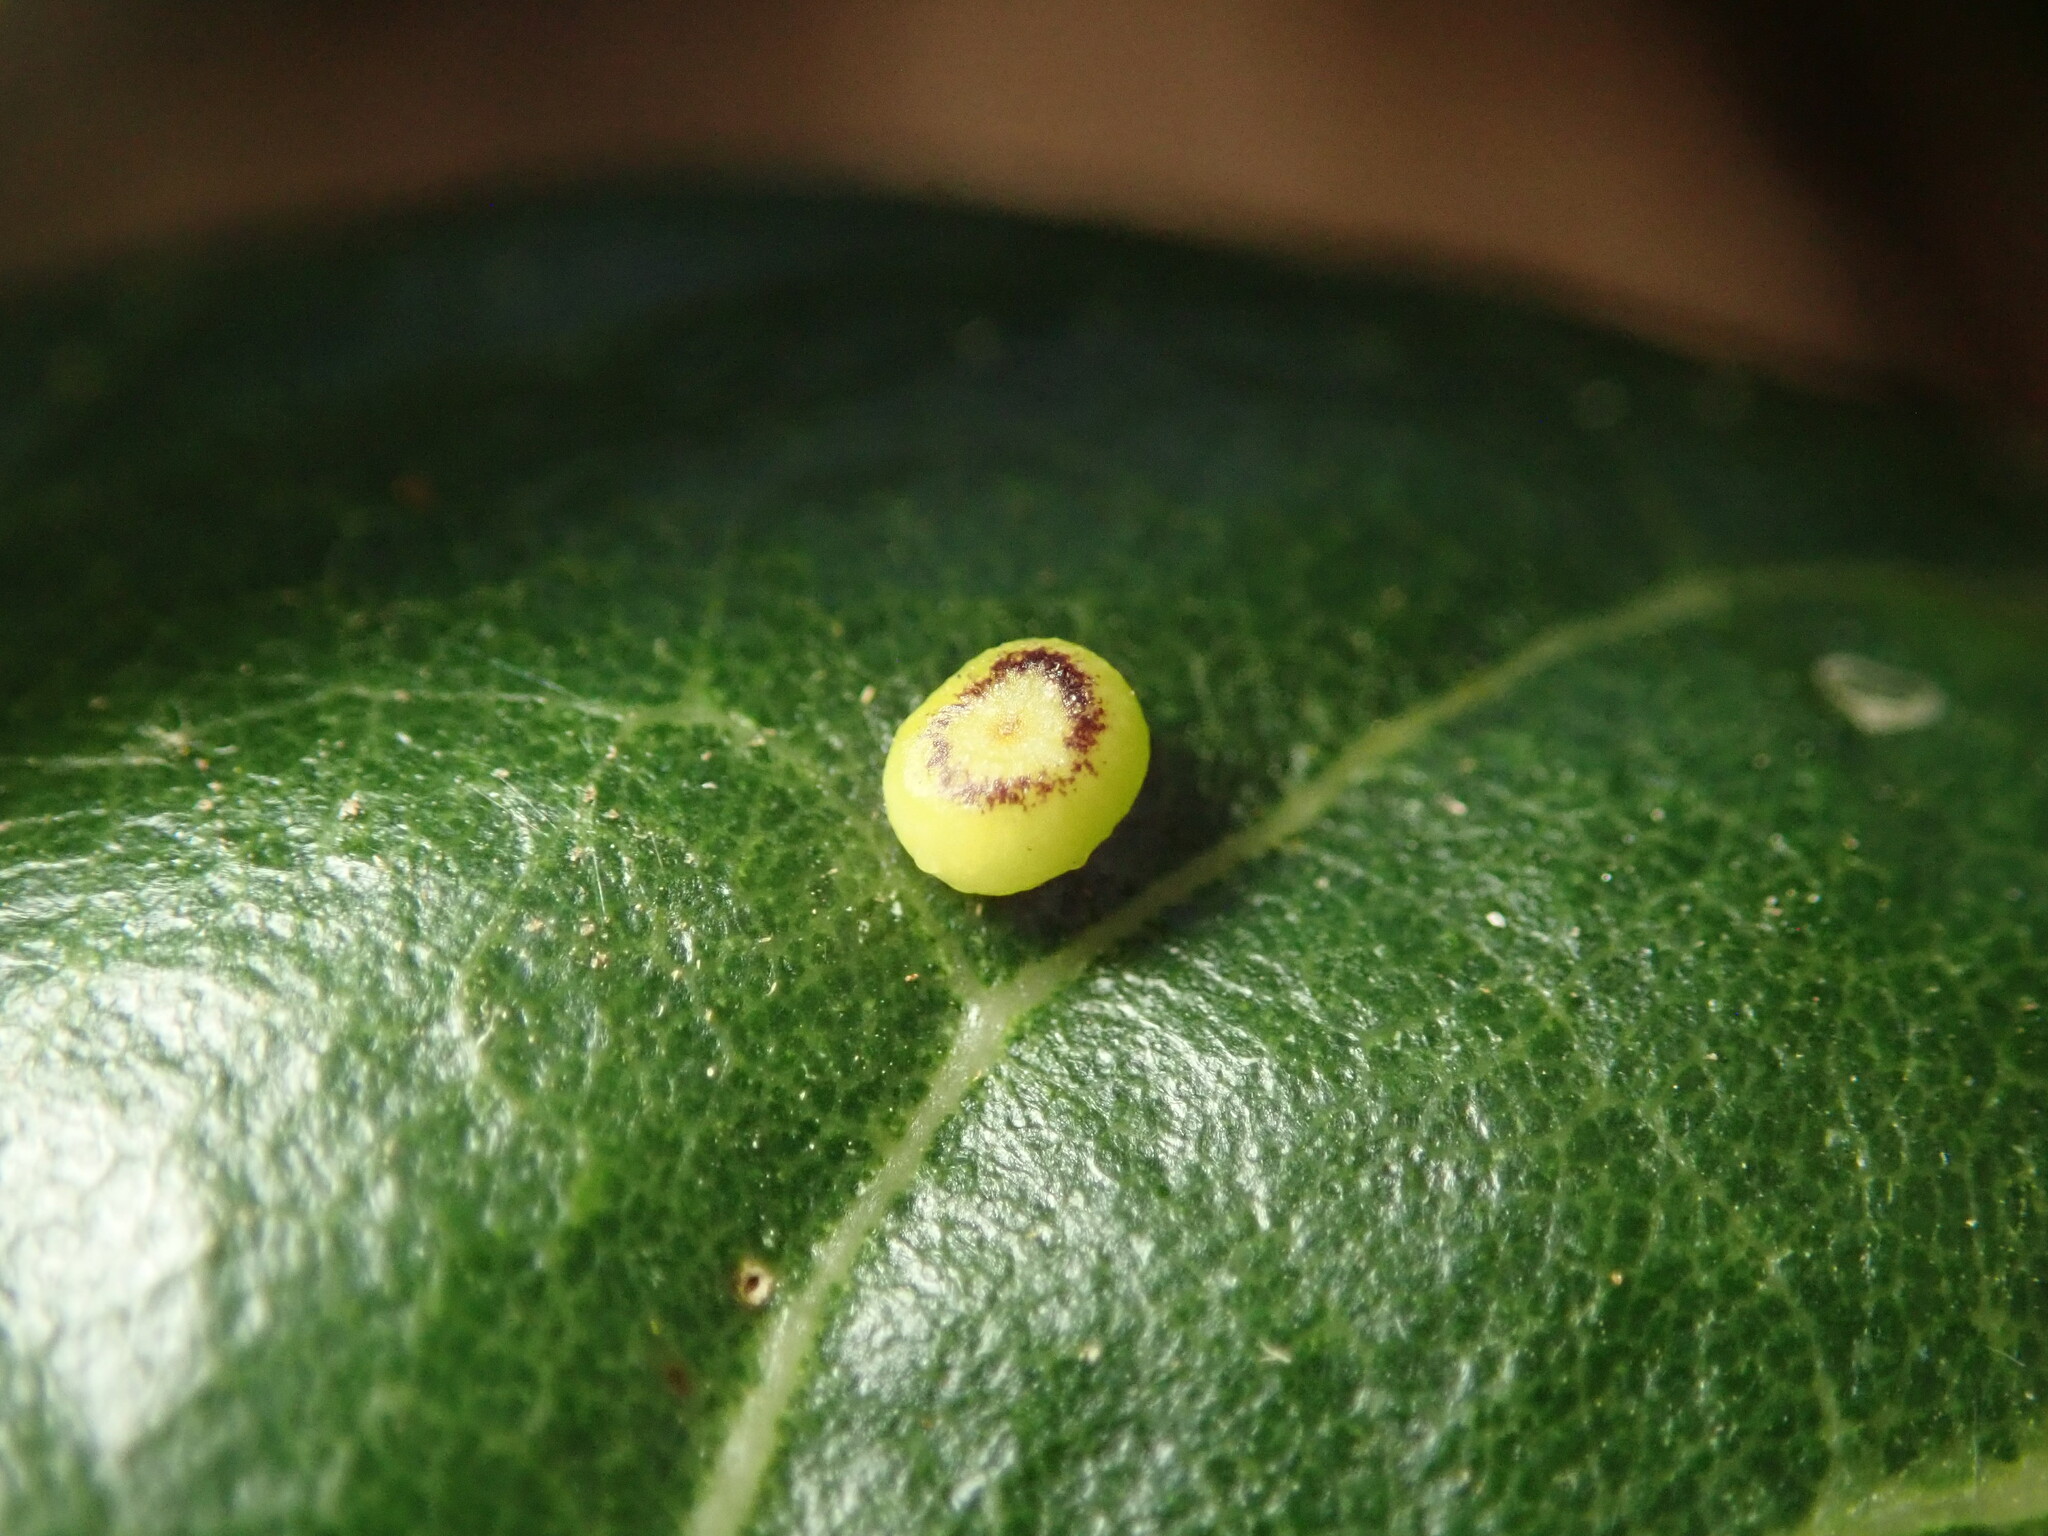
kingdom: Animalia
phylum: Arthropoda
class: Insecta
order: Hymenoptera
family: Cynipidae
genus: Dryocosmus
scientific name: Dryocosmus
